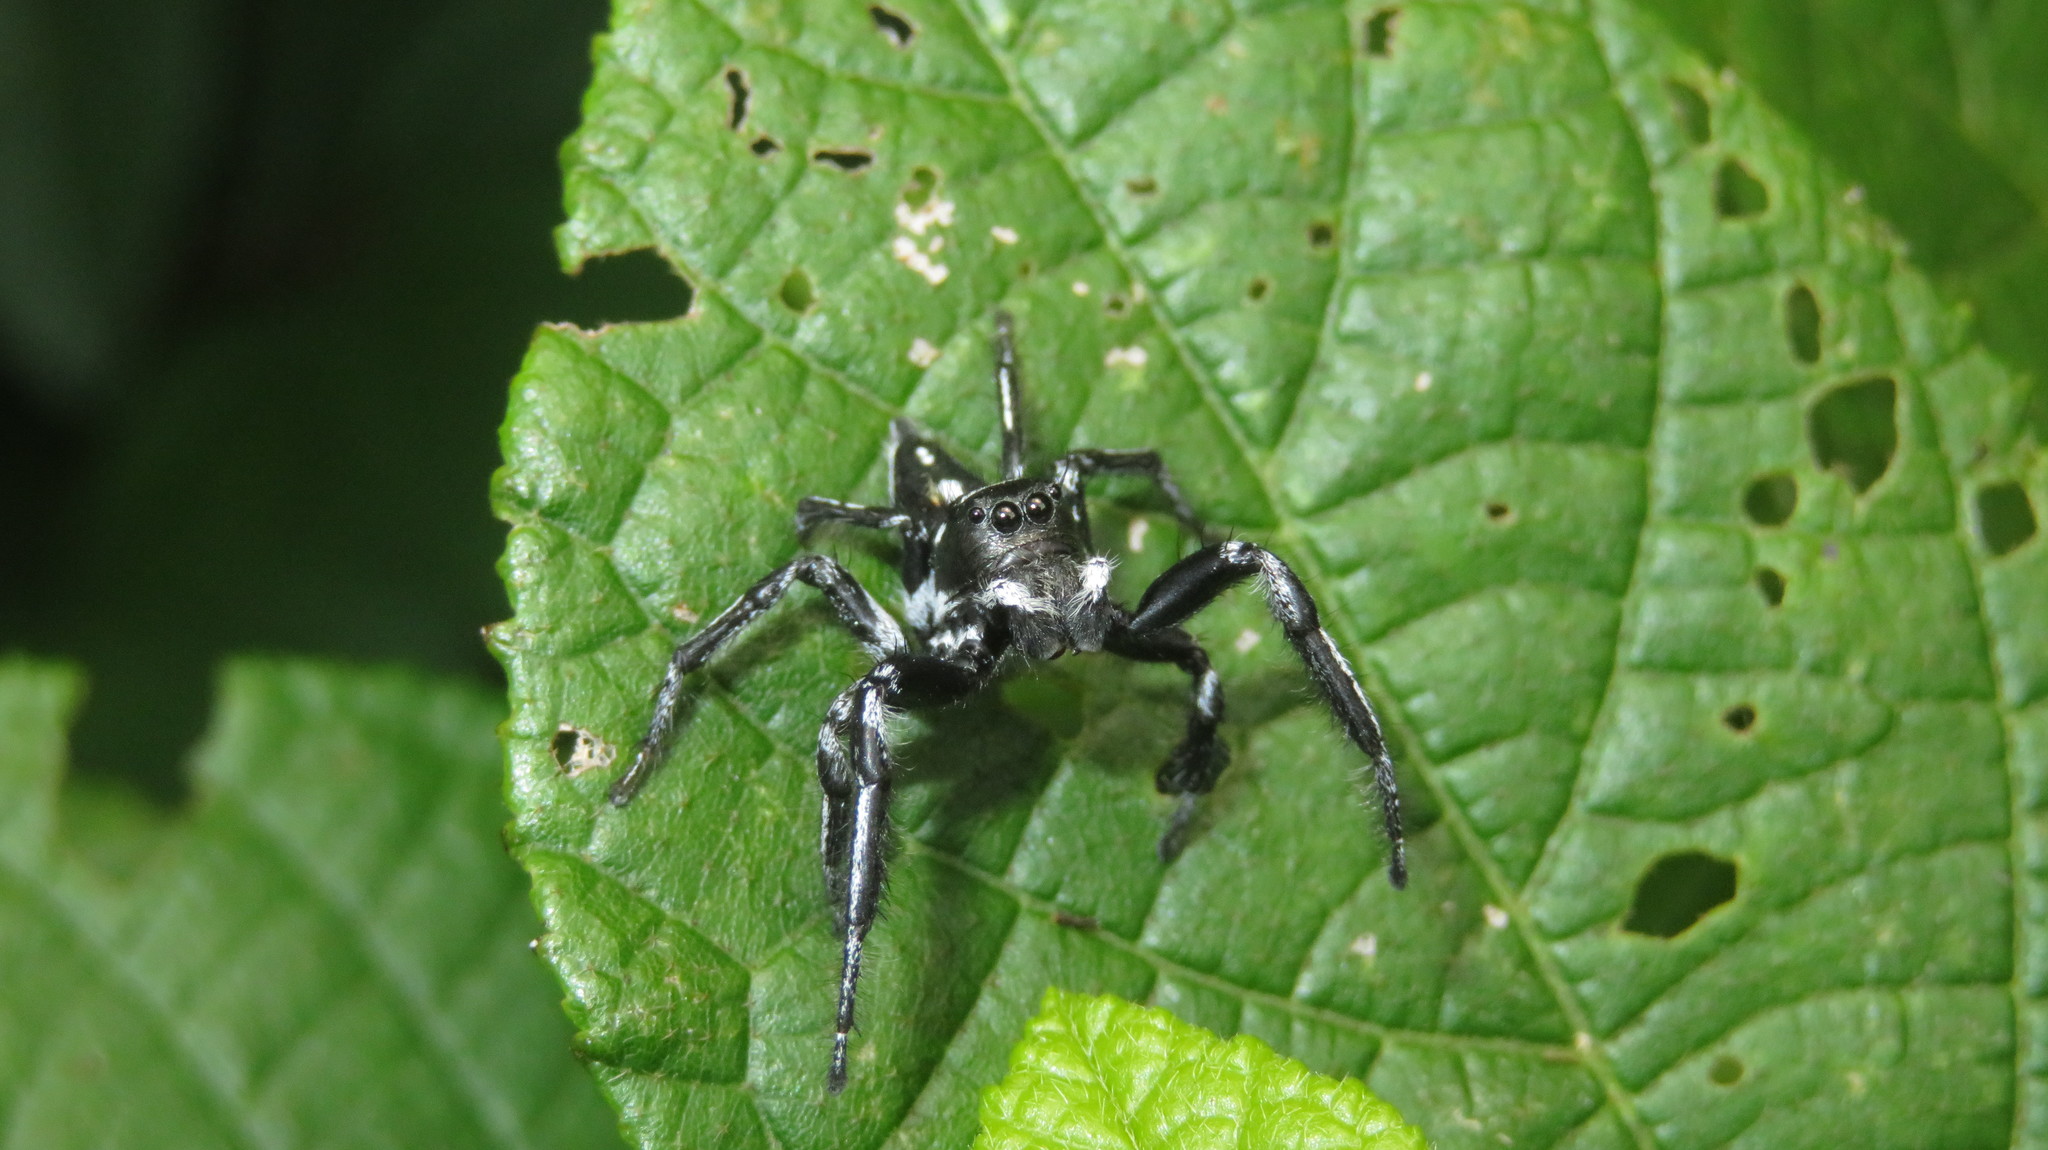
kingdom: Animalia
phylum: Arthropoda
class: Arachnida
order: Araneae
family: Salticidae
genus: Hyllus
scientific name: Hyllus argyrotoxus
